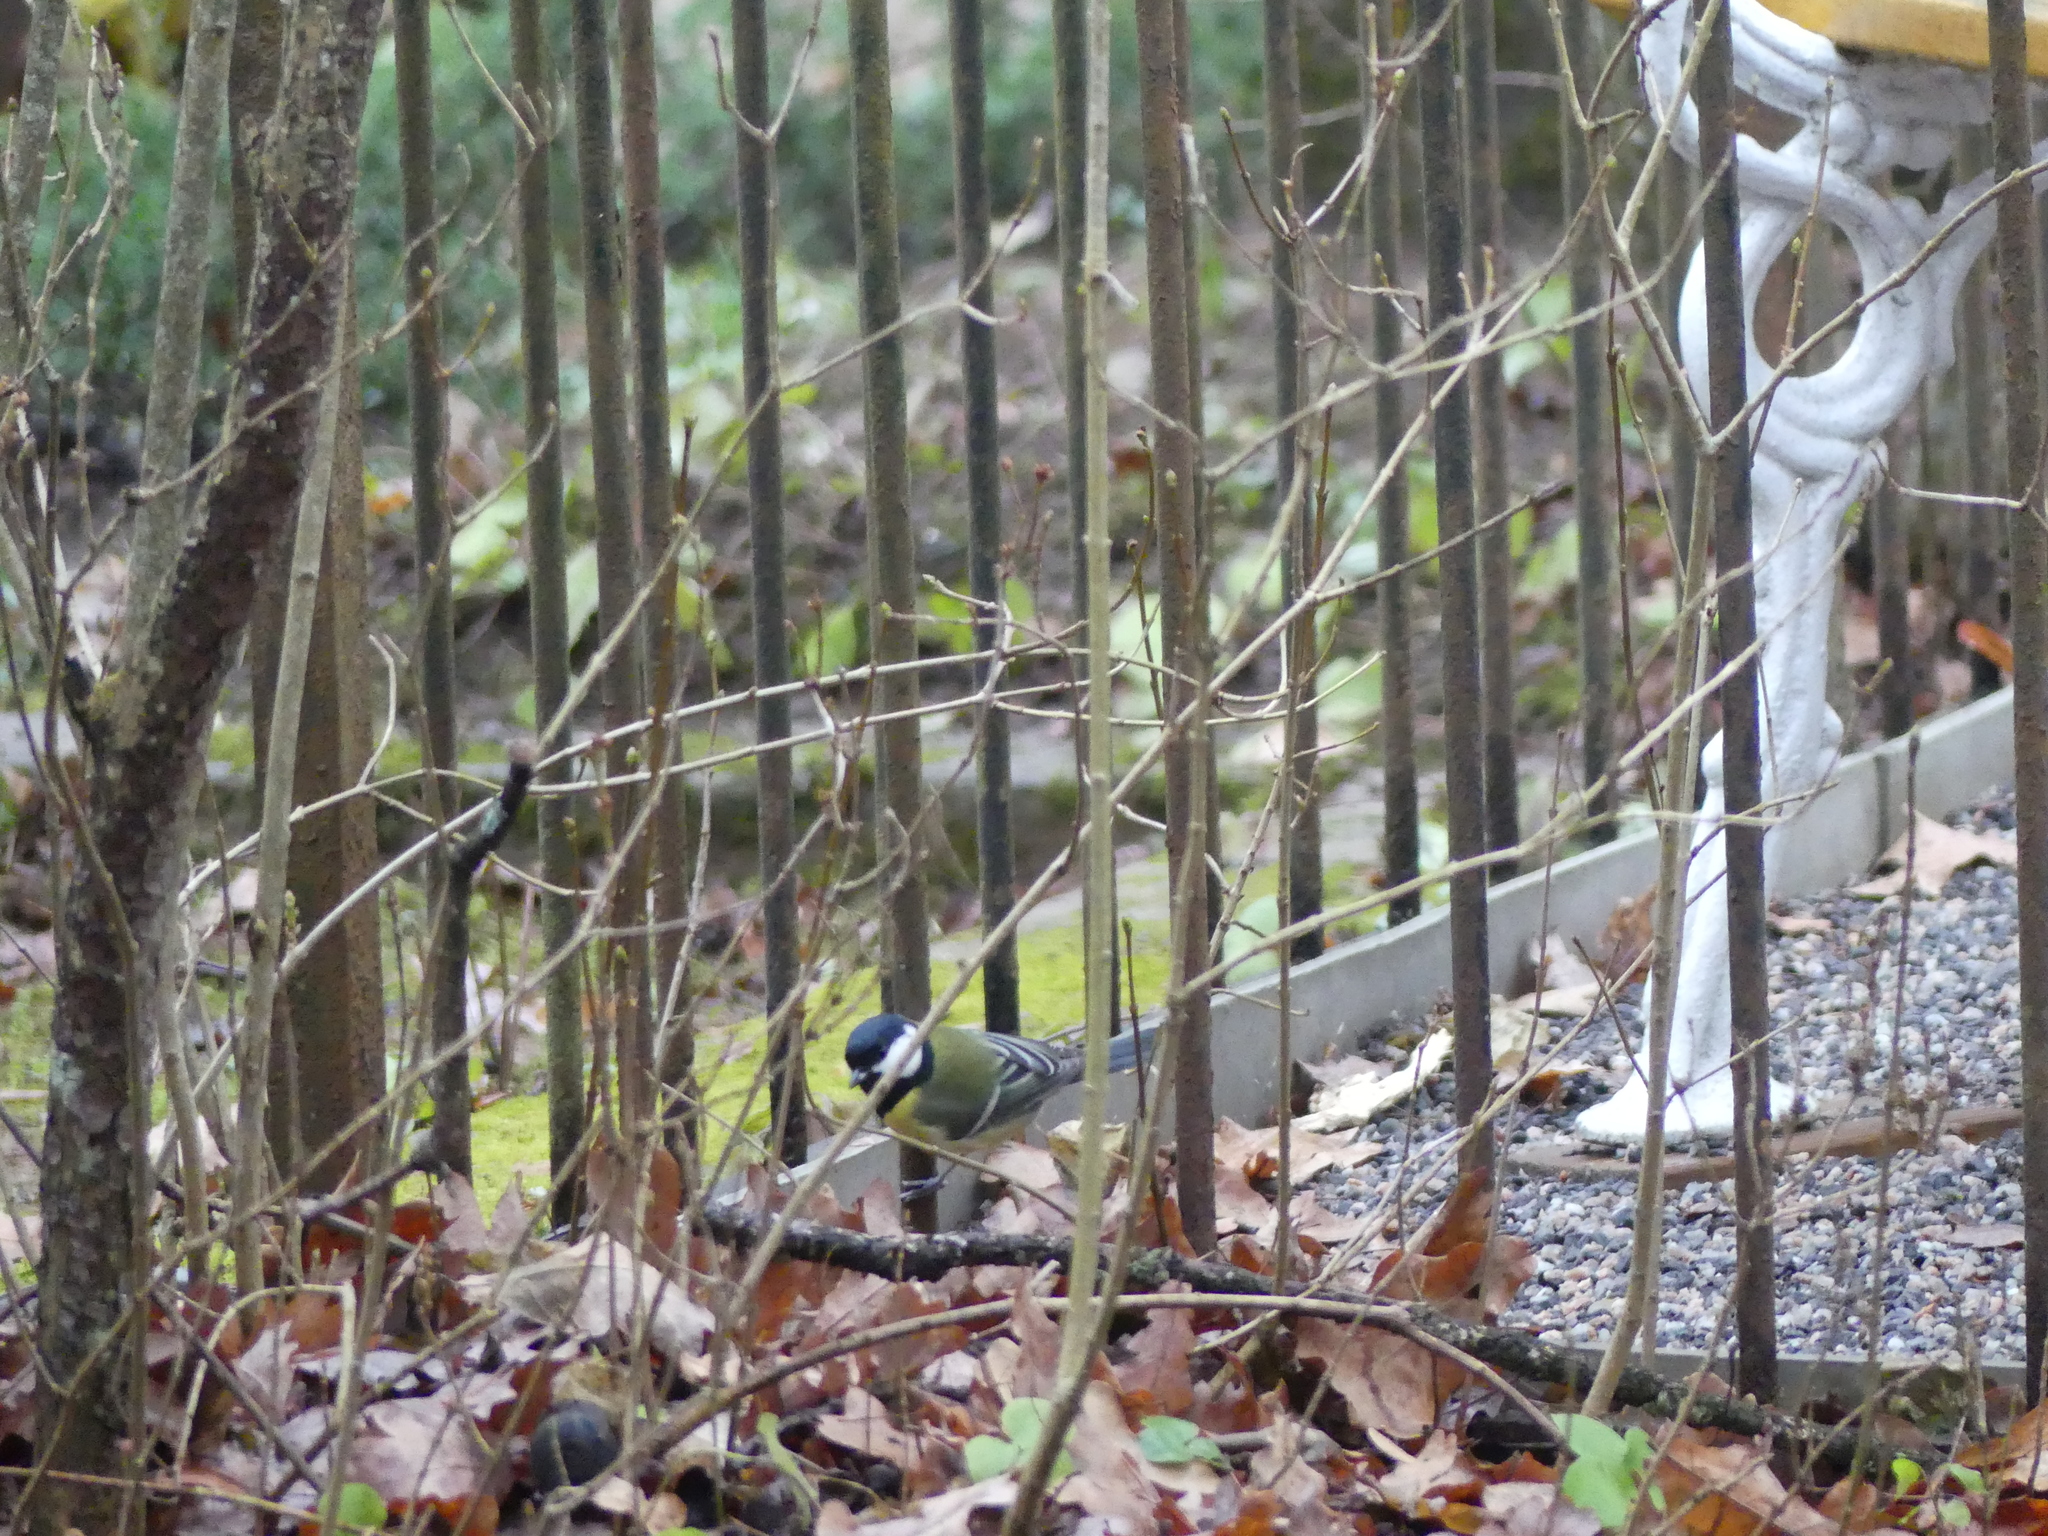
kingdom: Animalia
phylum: Chordata
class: Aves
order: Passeriformes
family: Paridae
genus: Parus
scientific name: Parus major
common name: Great tit
